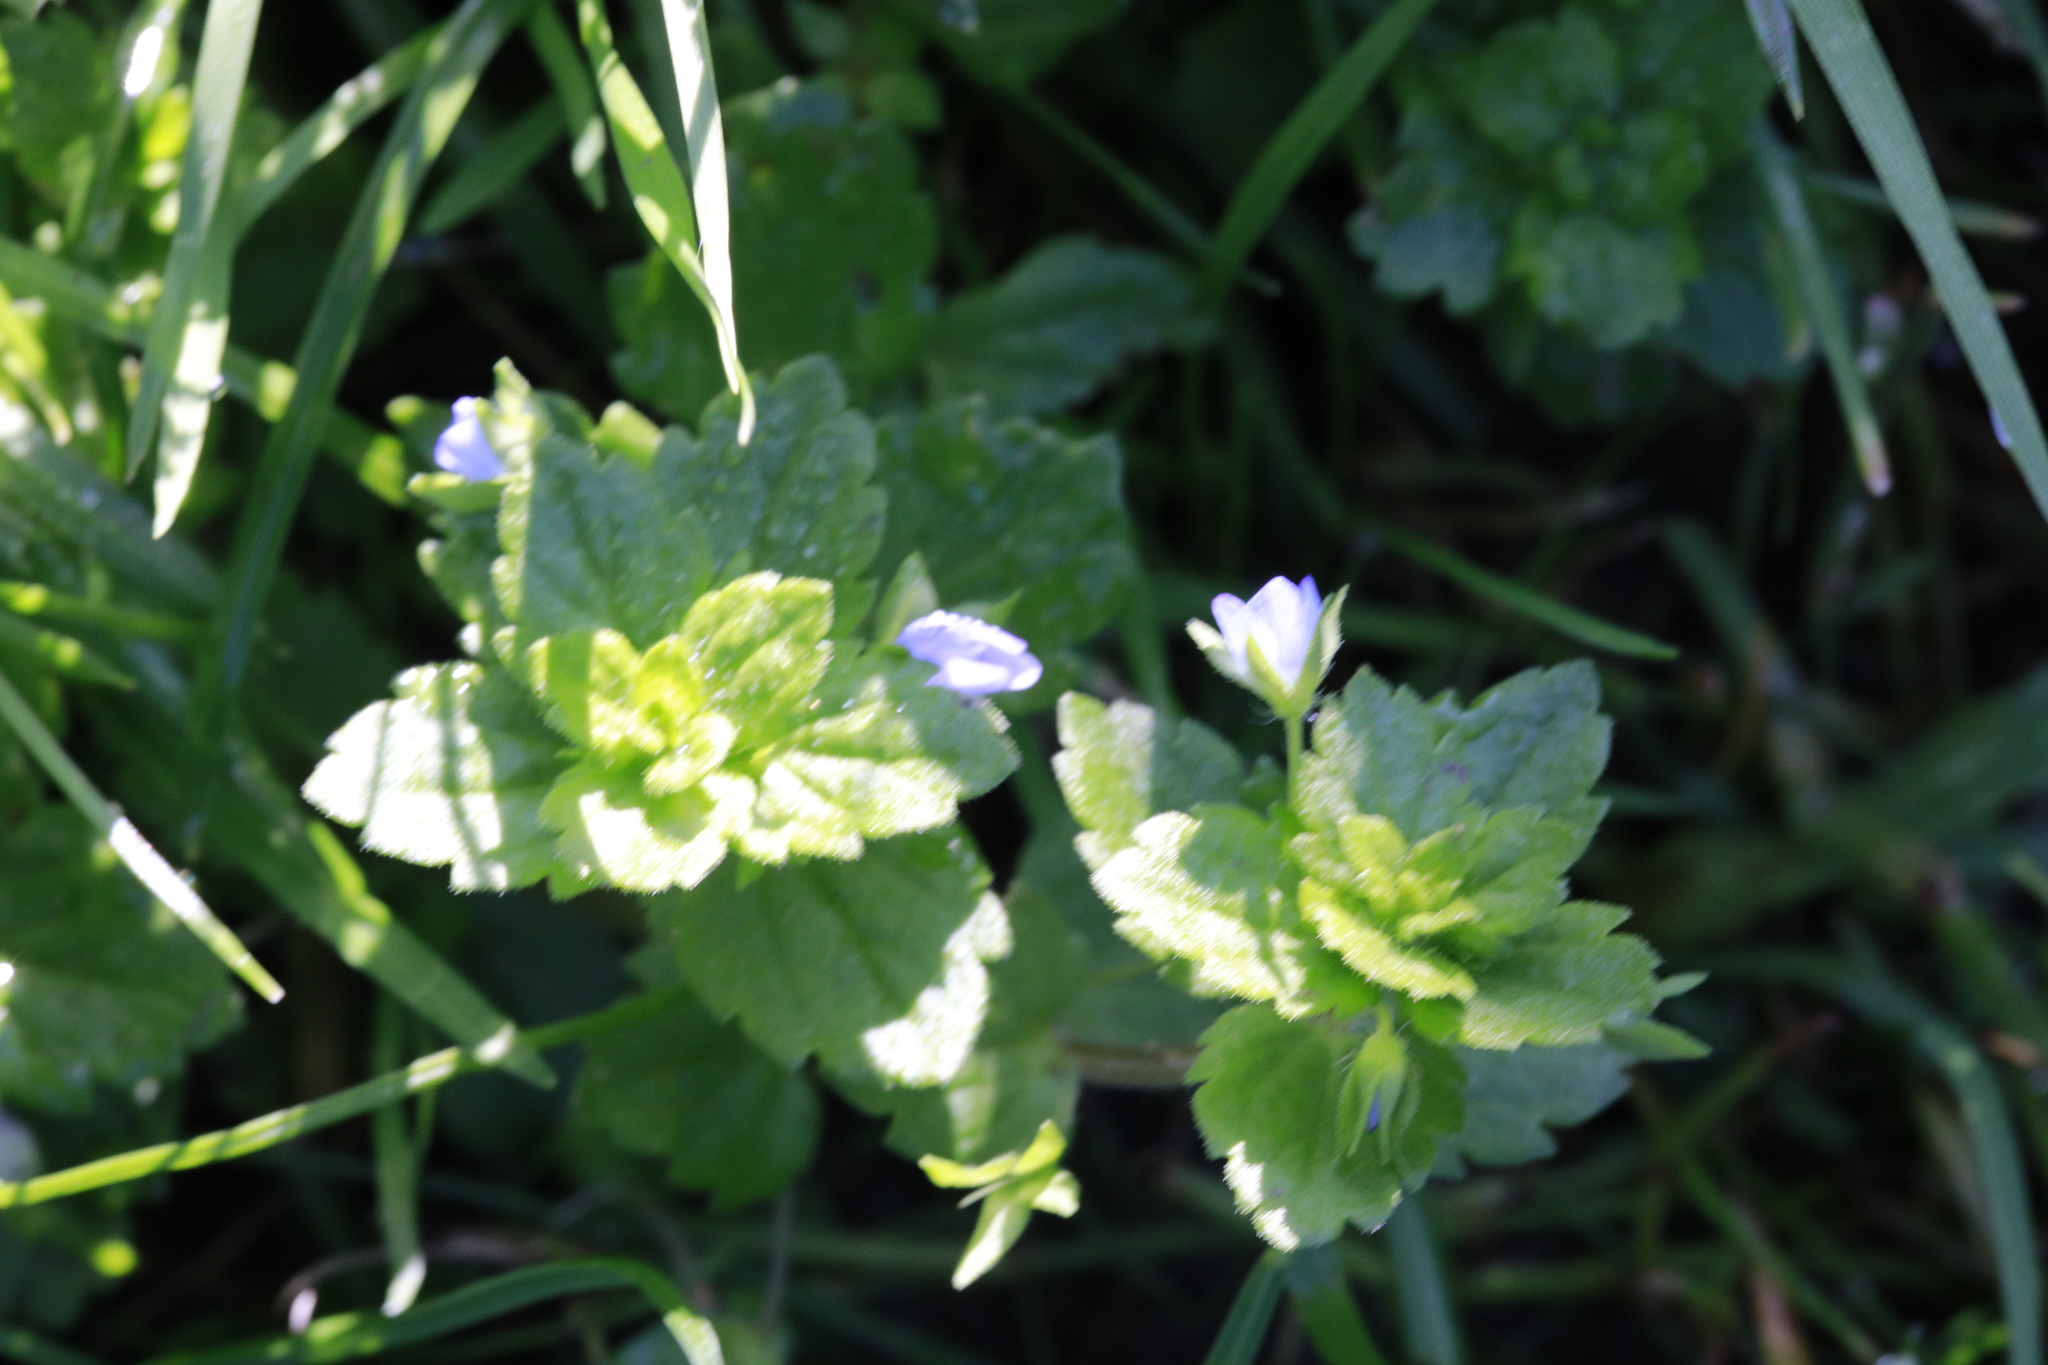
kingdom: Plantae
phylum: Tracheophyta
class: Magnoliopsida
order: Lamiales
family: Plantaginaceae
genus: Veronica
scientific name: Veronica persica
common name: Common field-speedwell
